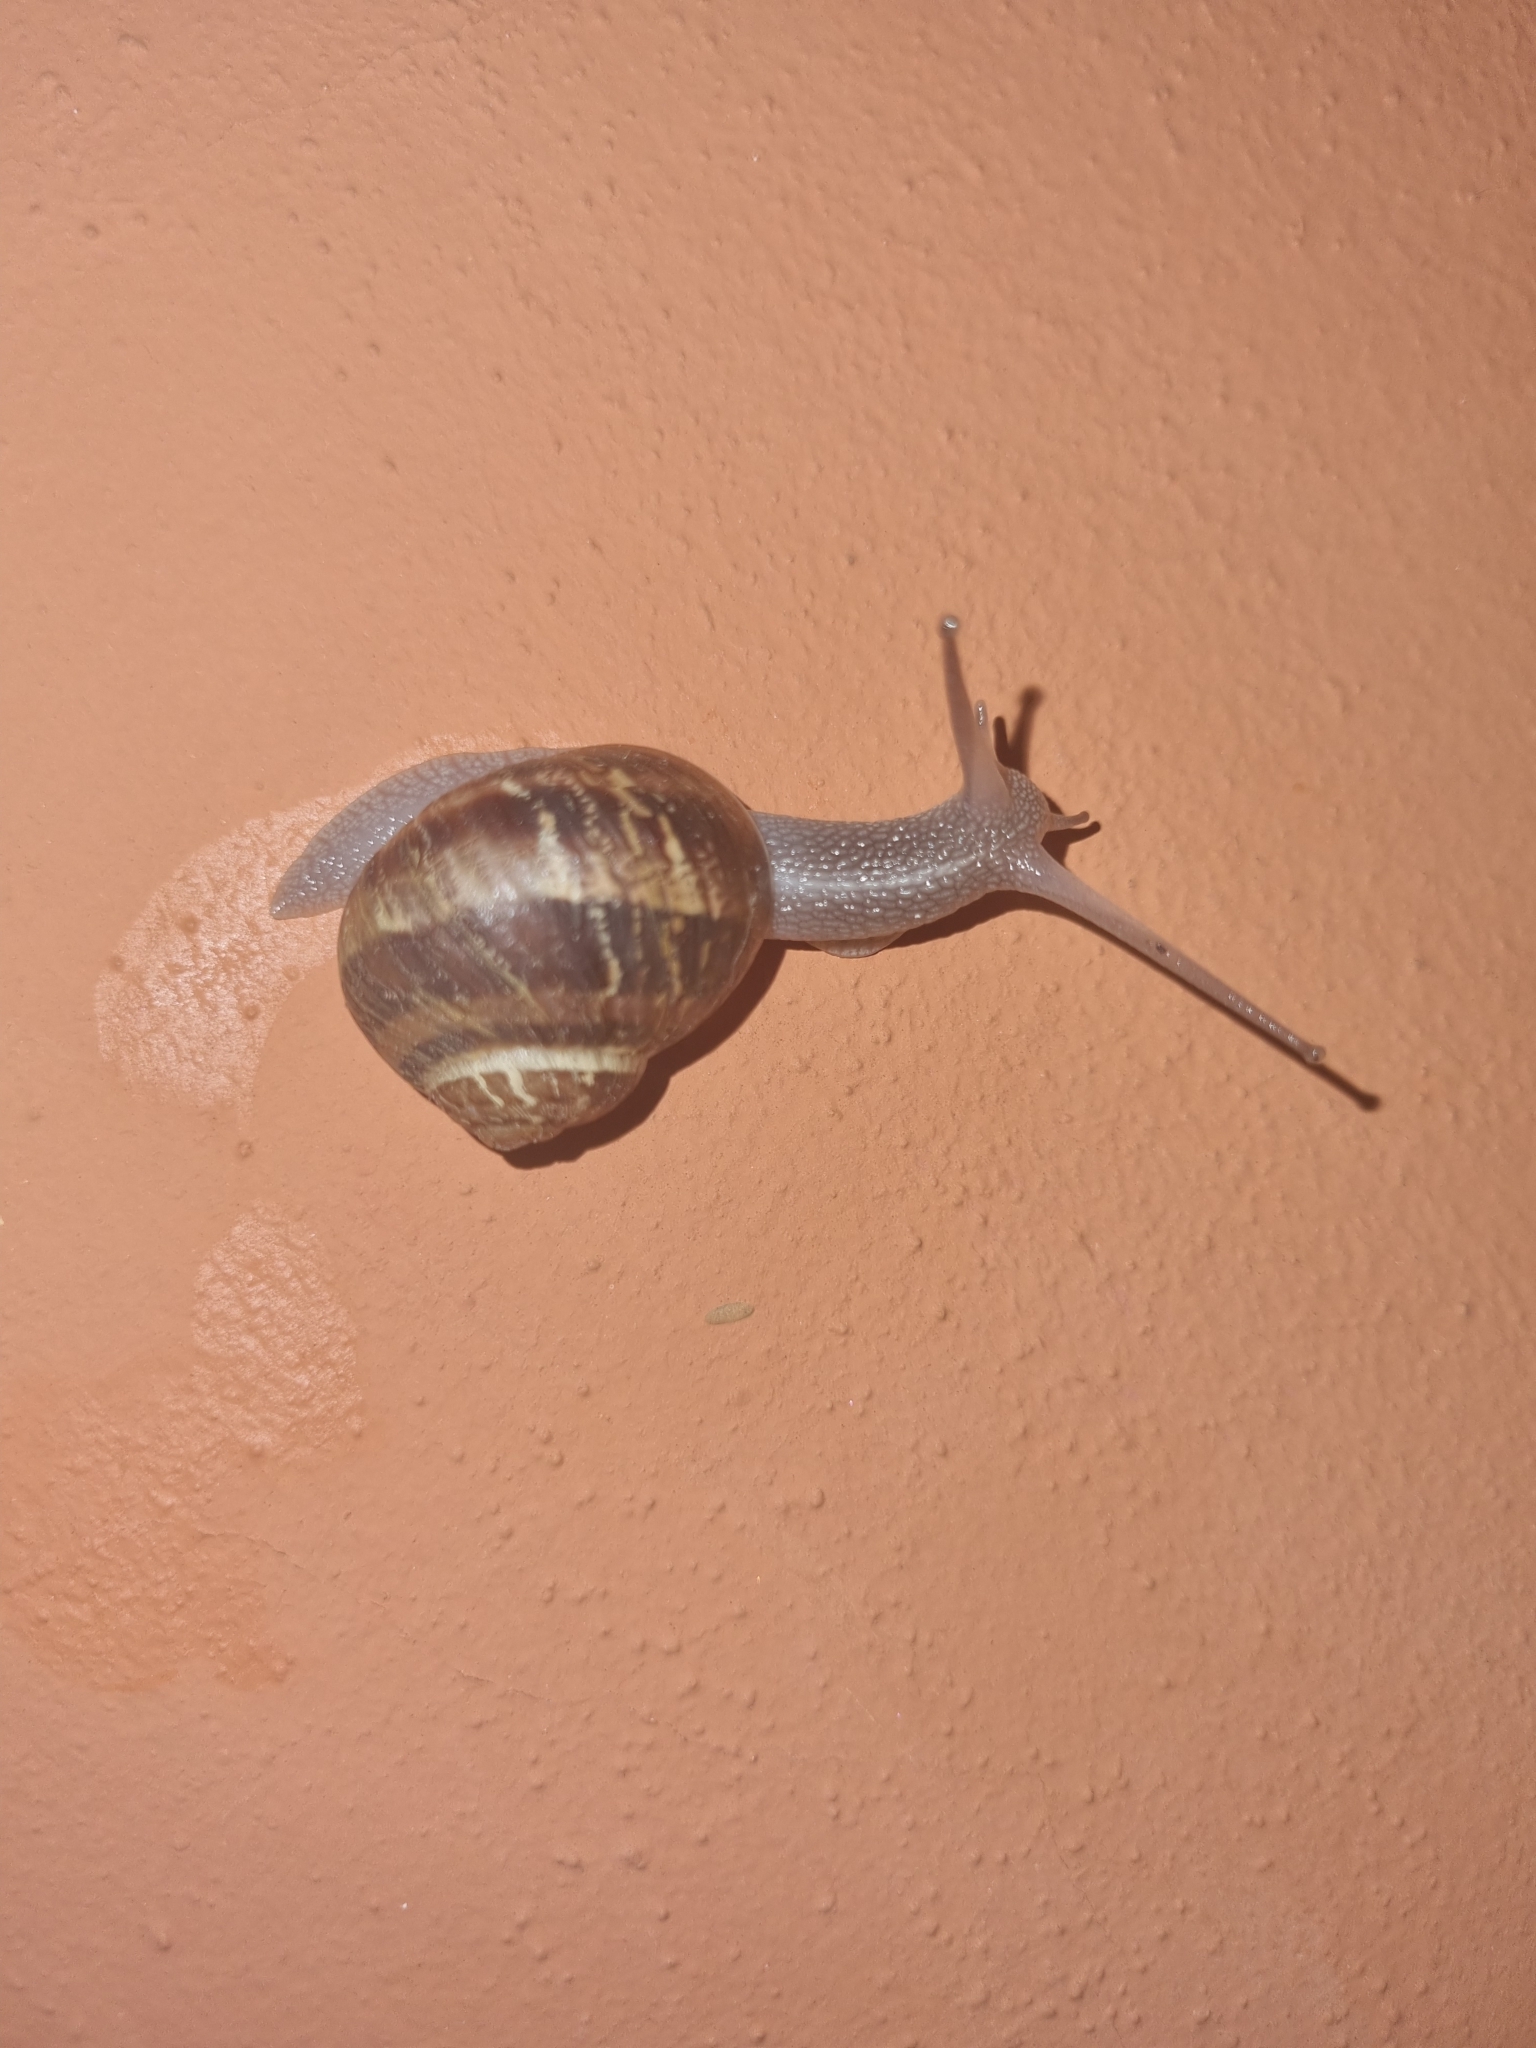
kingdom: Animalia
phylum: Mollusca
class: Gastropoda
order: Stylommatophora
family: Helicidae
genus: Cornu
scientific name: Cornu aspersum
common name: Brown garden snail
